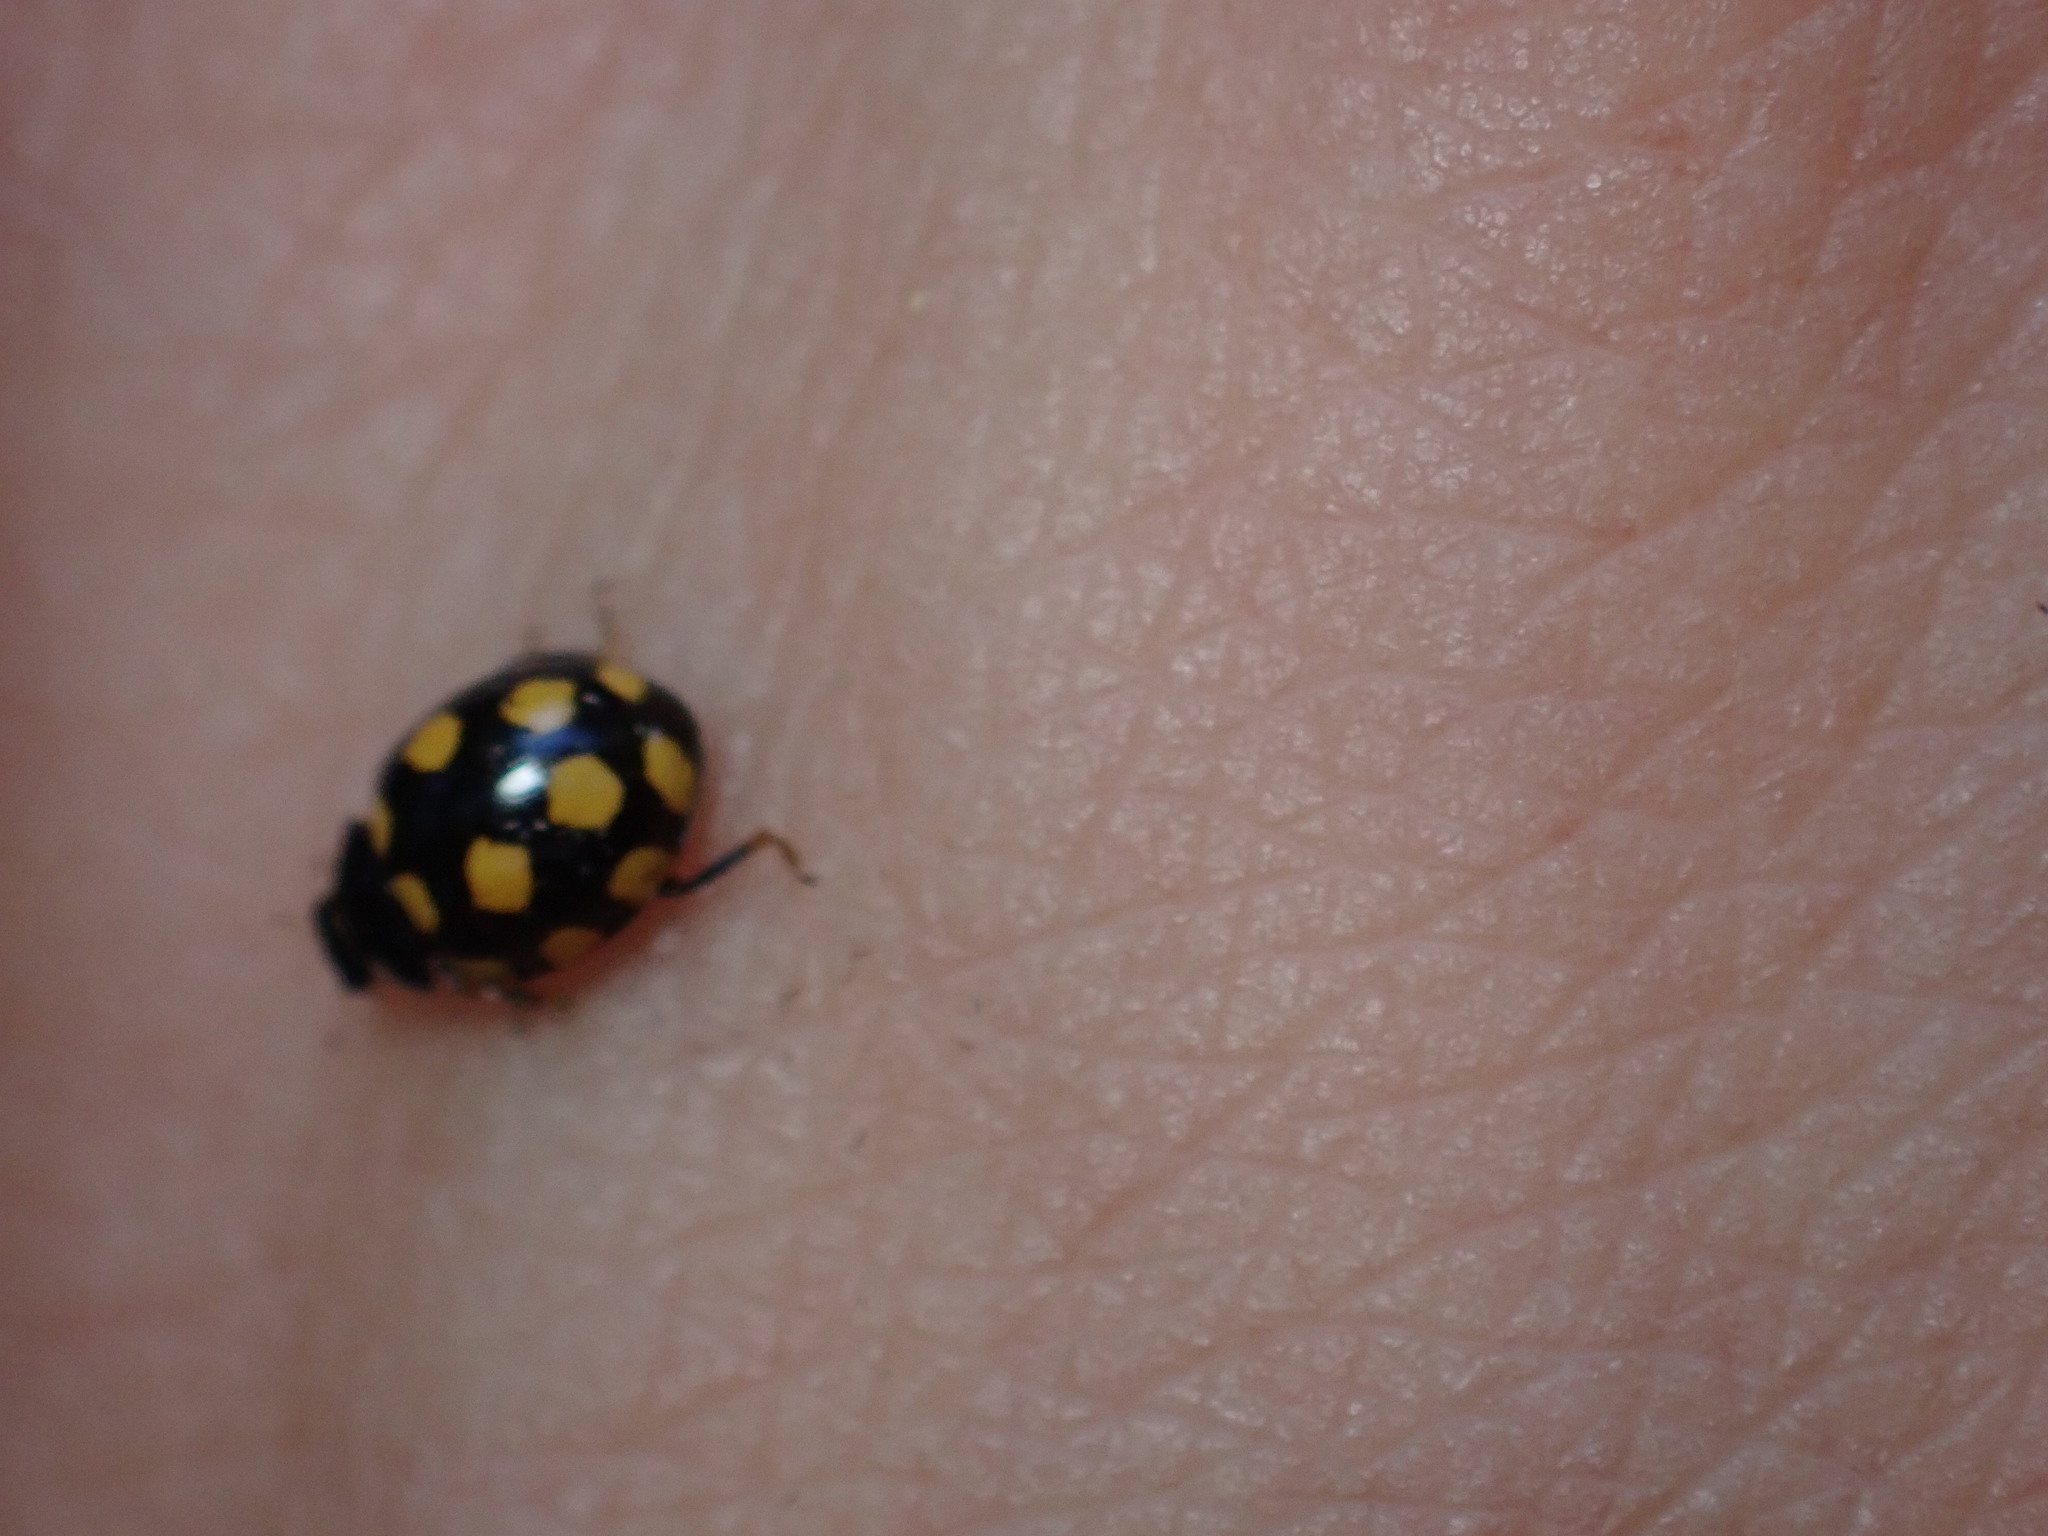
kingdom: Animalia
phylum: Arthropoda
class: Insecta
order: Coleoptera
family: Coccinellidae
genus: Coccinula
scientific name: Coccinula quatuordecimpustulata
